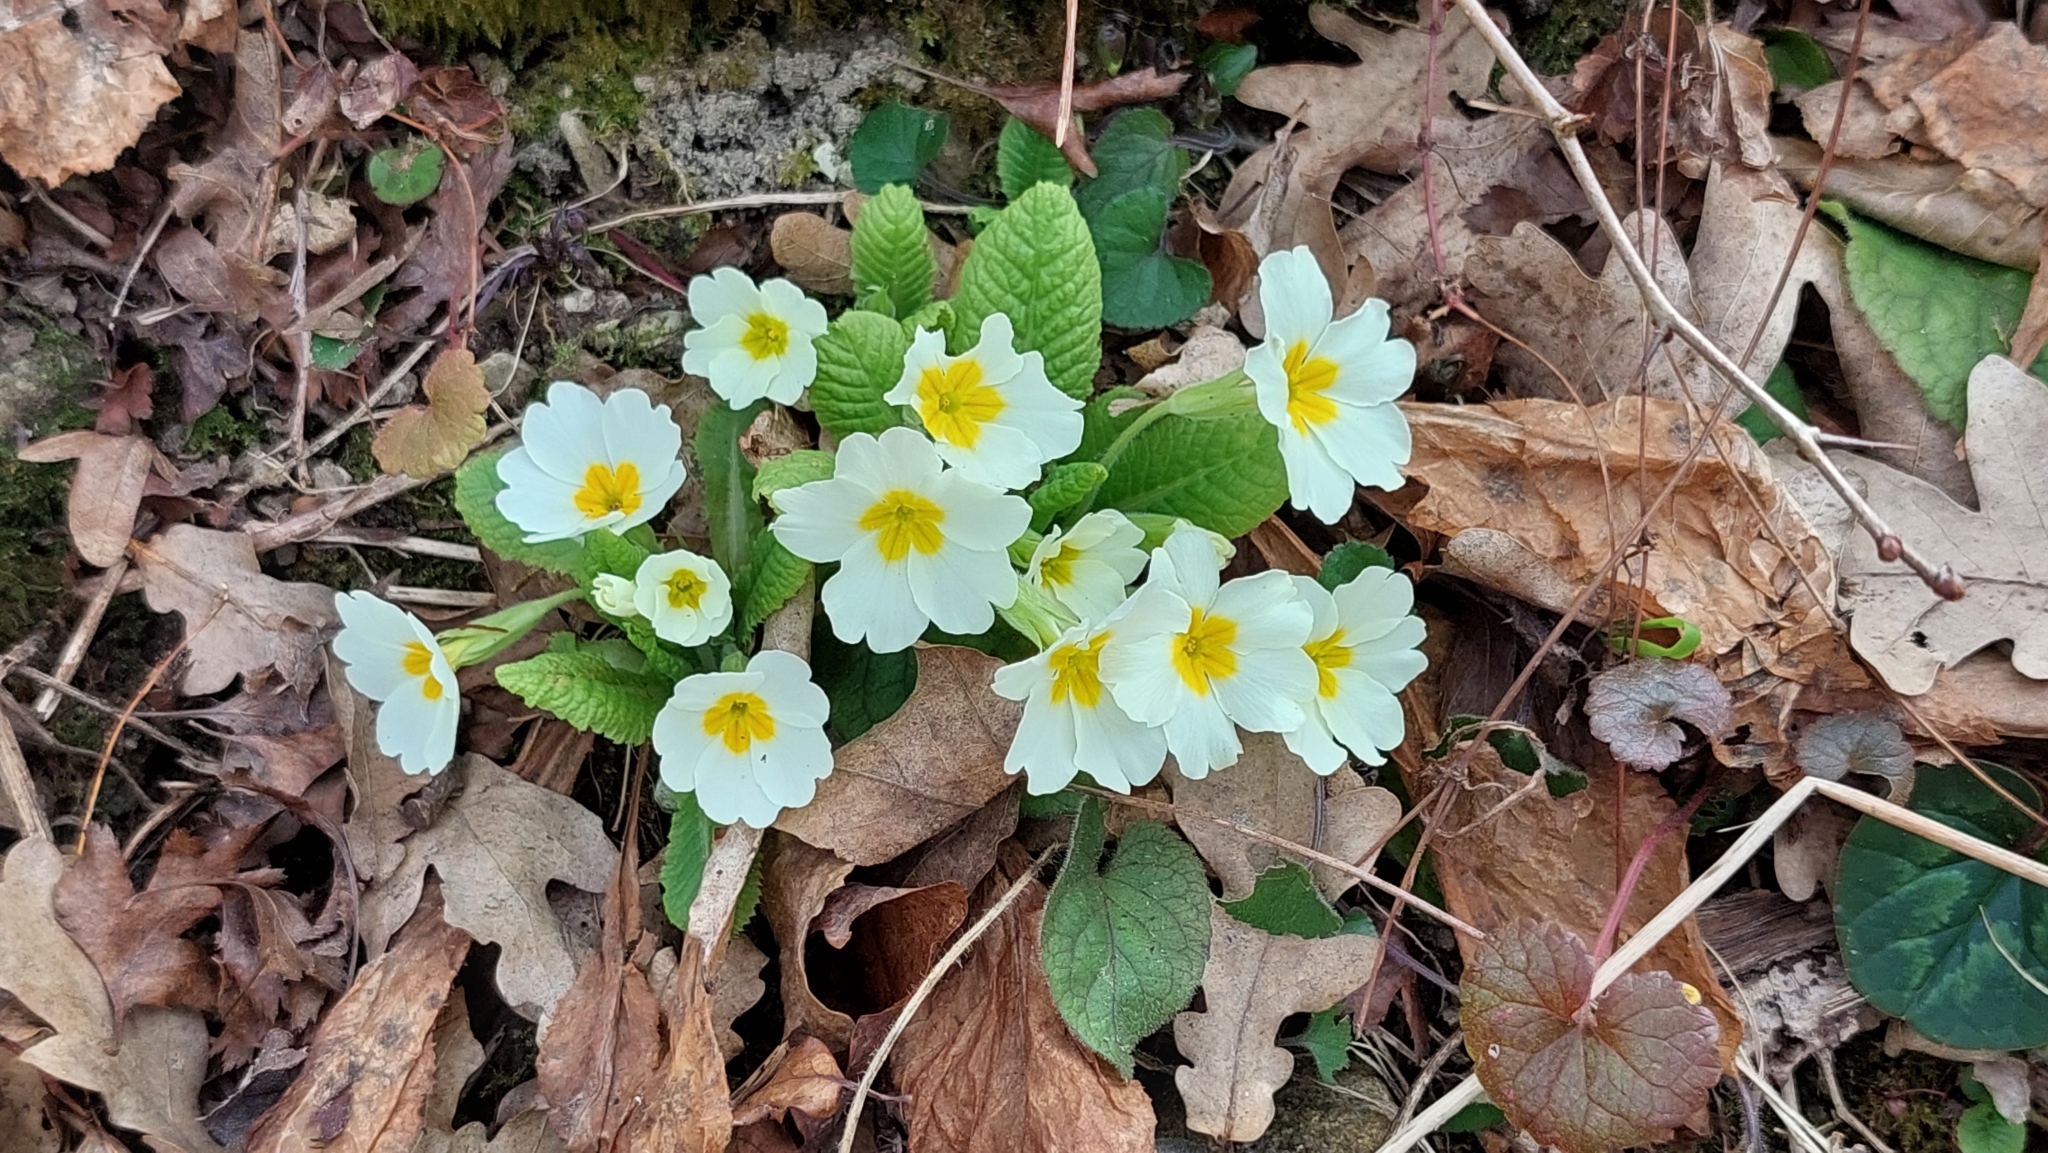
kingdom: Plantae
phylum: Tracheophyta
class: Magnoliopsida
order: Ericales
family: Primulaceae
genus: Primula
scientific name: Primula vulgaris
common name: Primrose
